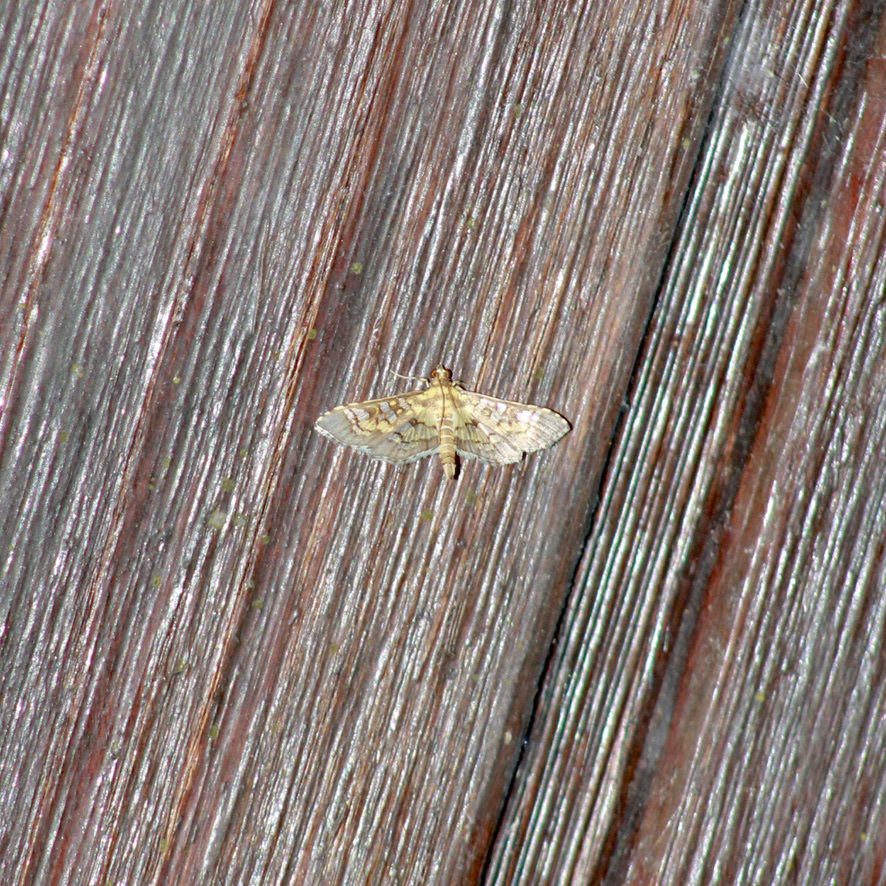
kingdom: Animalia
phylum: Arthropoda
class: Insecta
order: Lepidoptera
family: Crambidae
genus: Samea
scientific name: Samea ecclesialis
